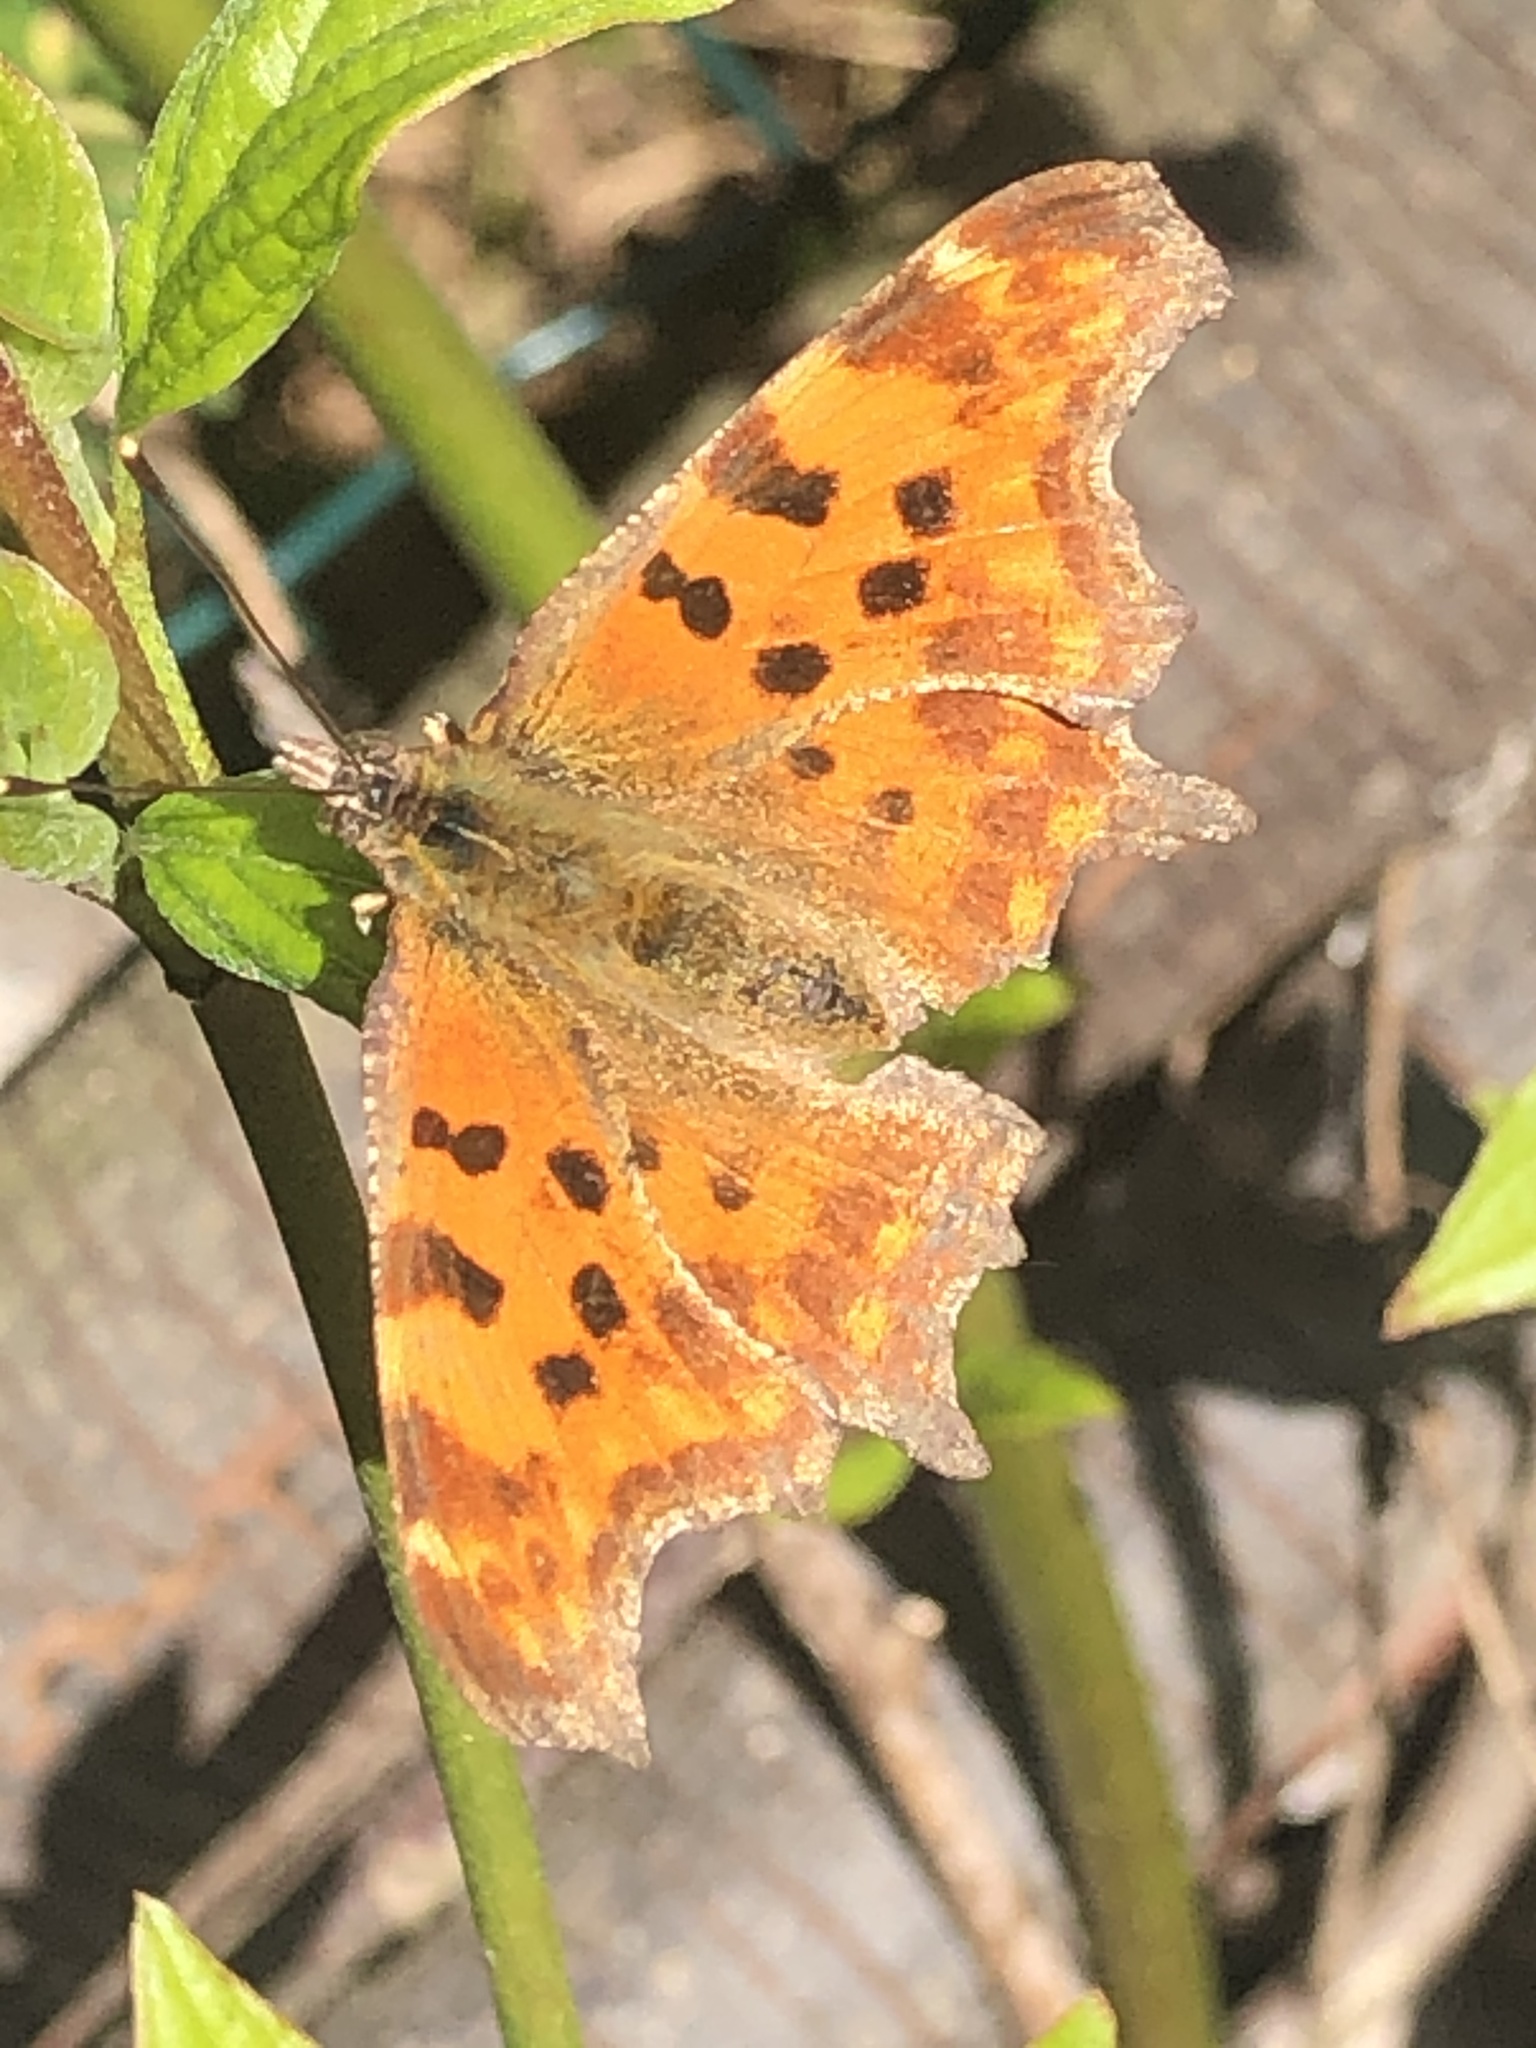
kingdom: Animalia
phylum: Arthropoda
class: Insecta
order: Lepidoptera
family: Nymphalidae
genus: Polygonia
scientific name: Polygonia c-album
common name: Comma
